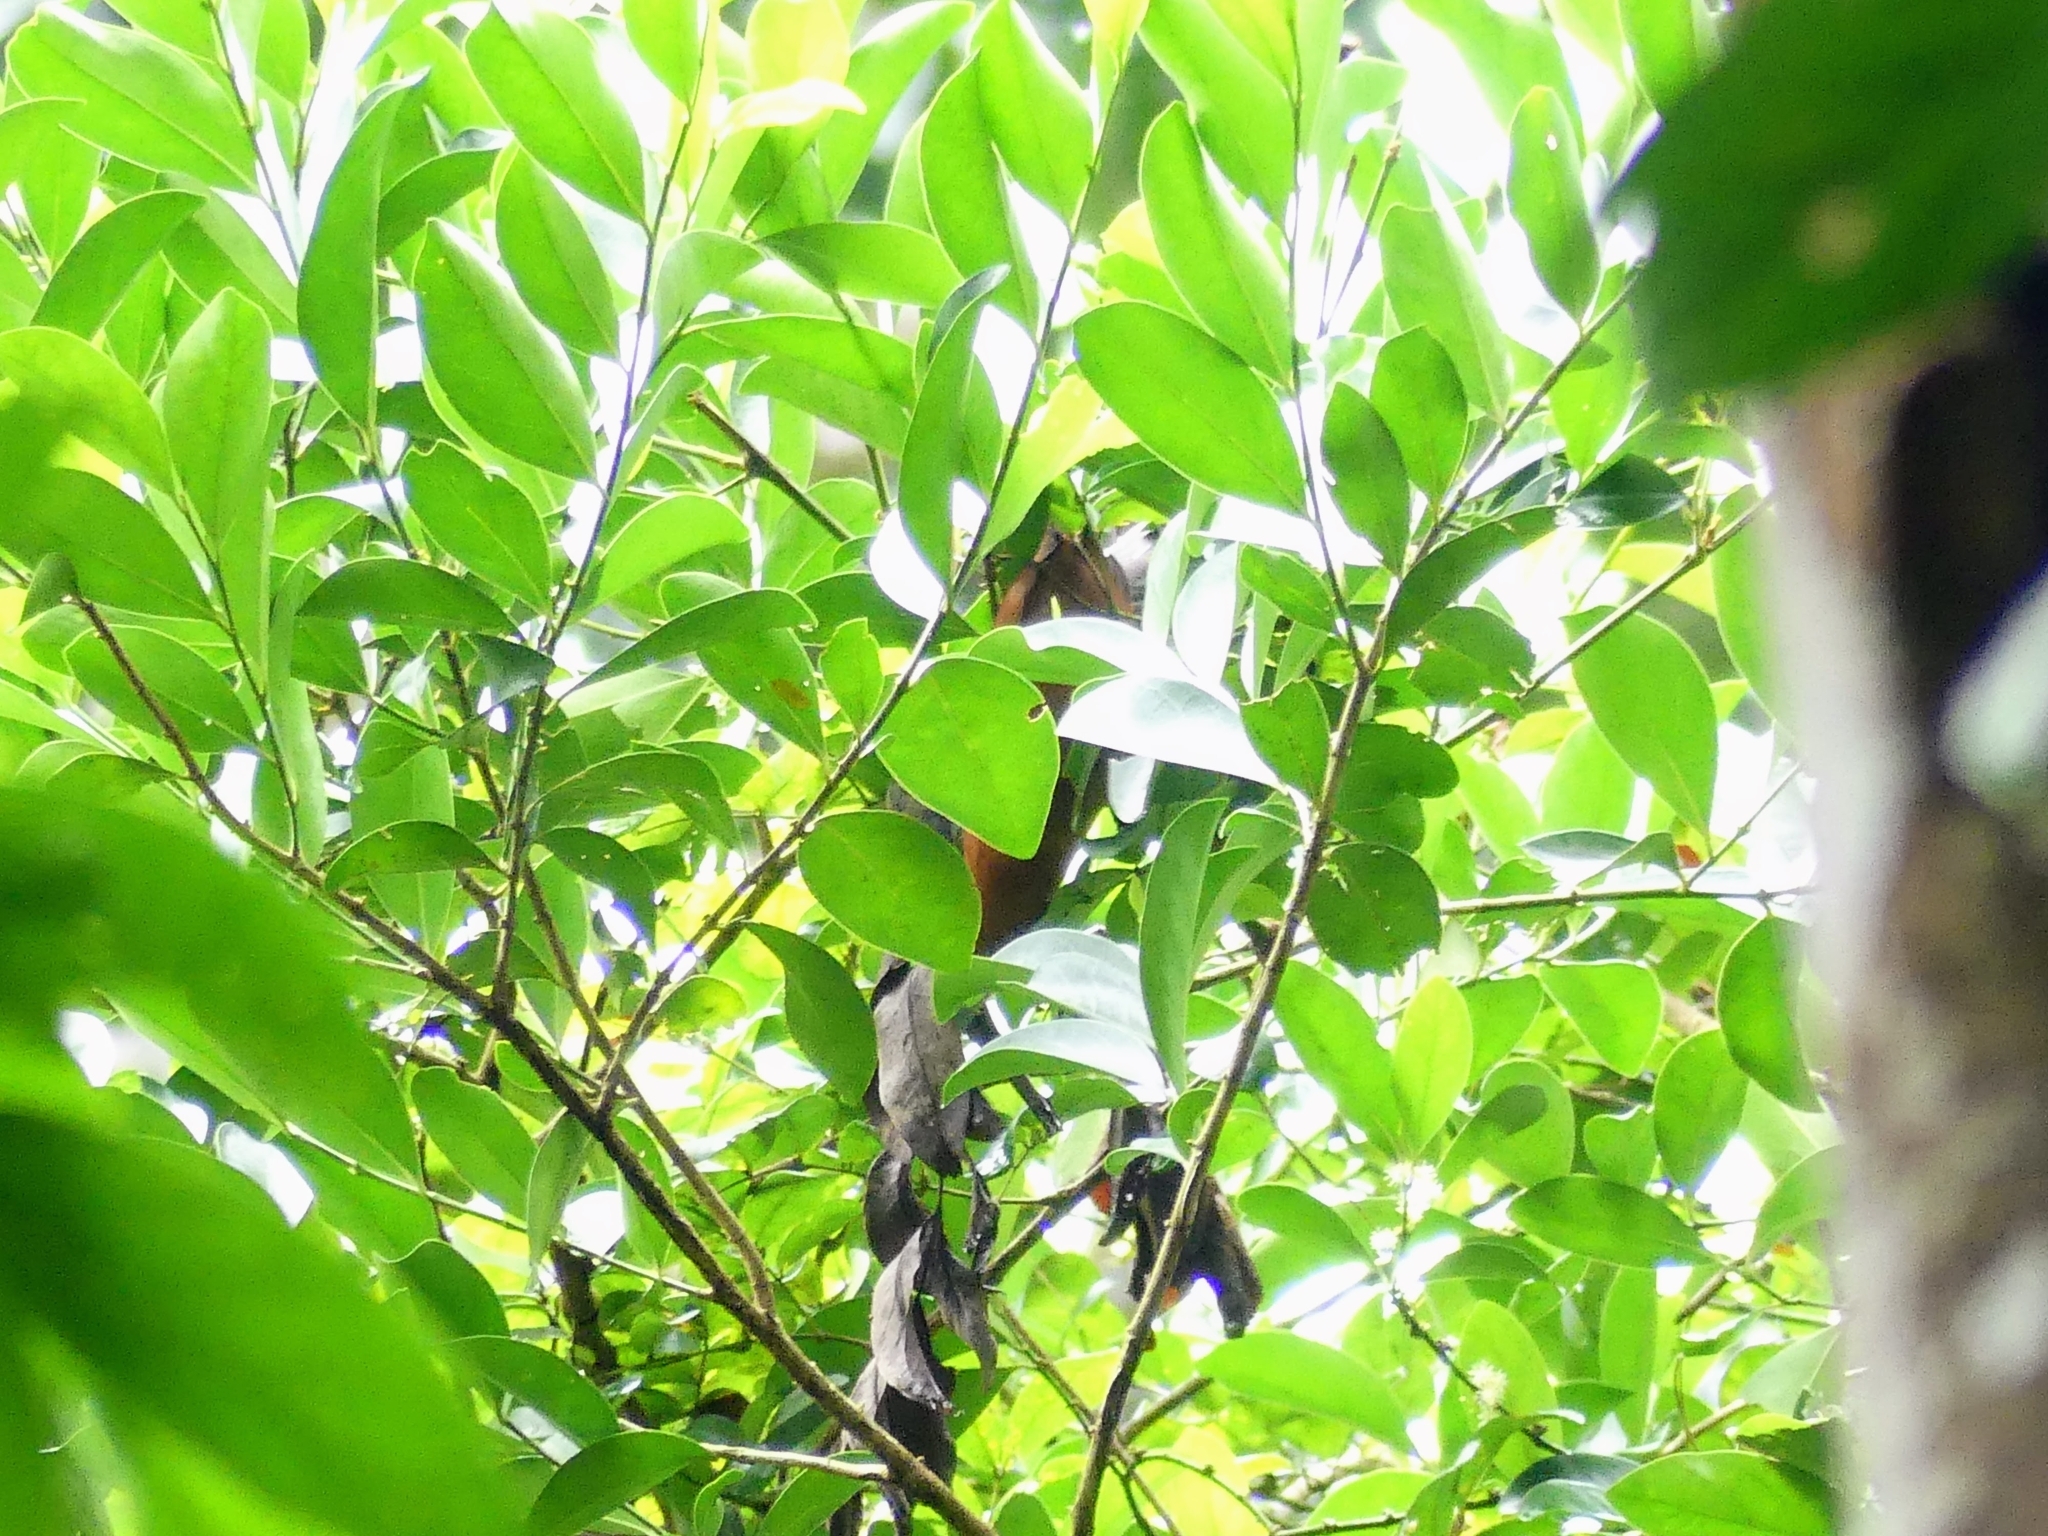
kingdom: Animalia
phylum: Chordata
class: Aves
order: Cuculiformes
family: Cuculidae
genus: Zanclostomus
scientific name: Zanclostomus curvirostris
